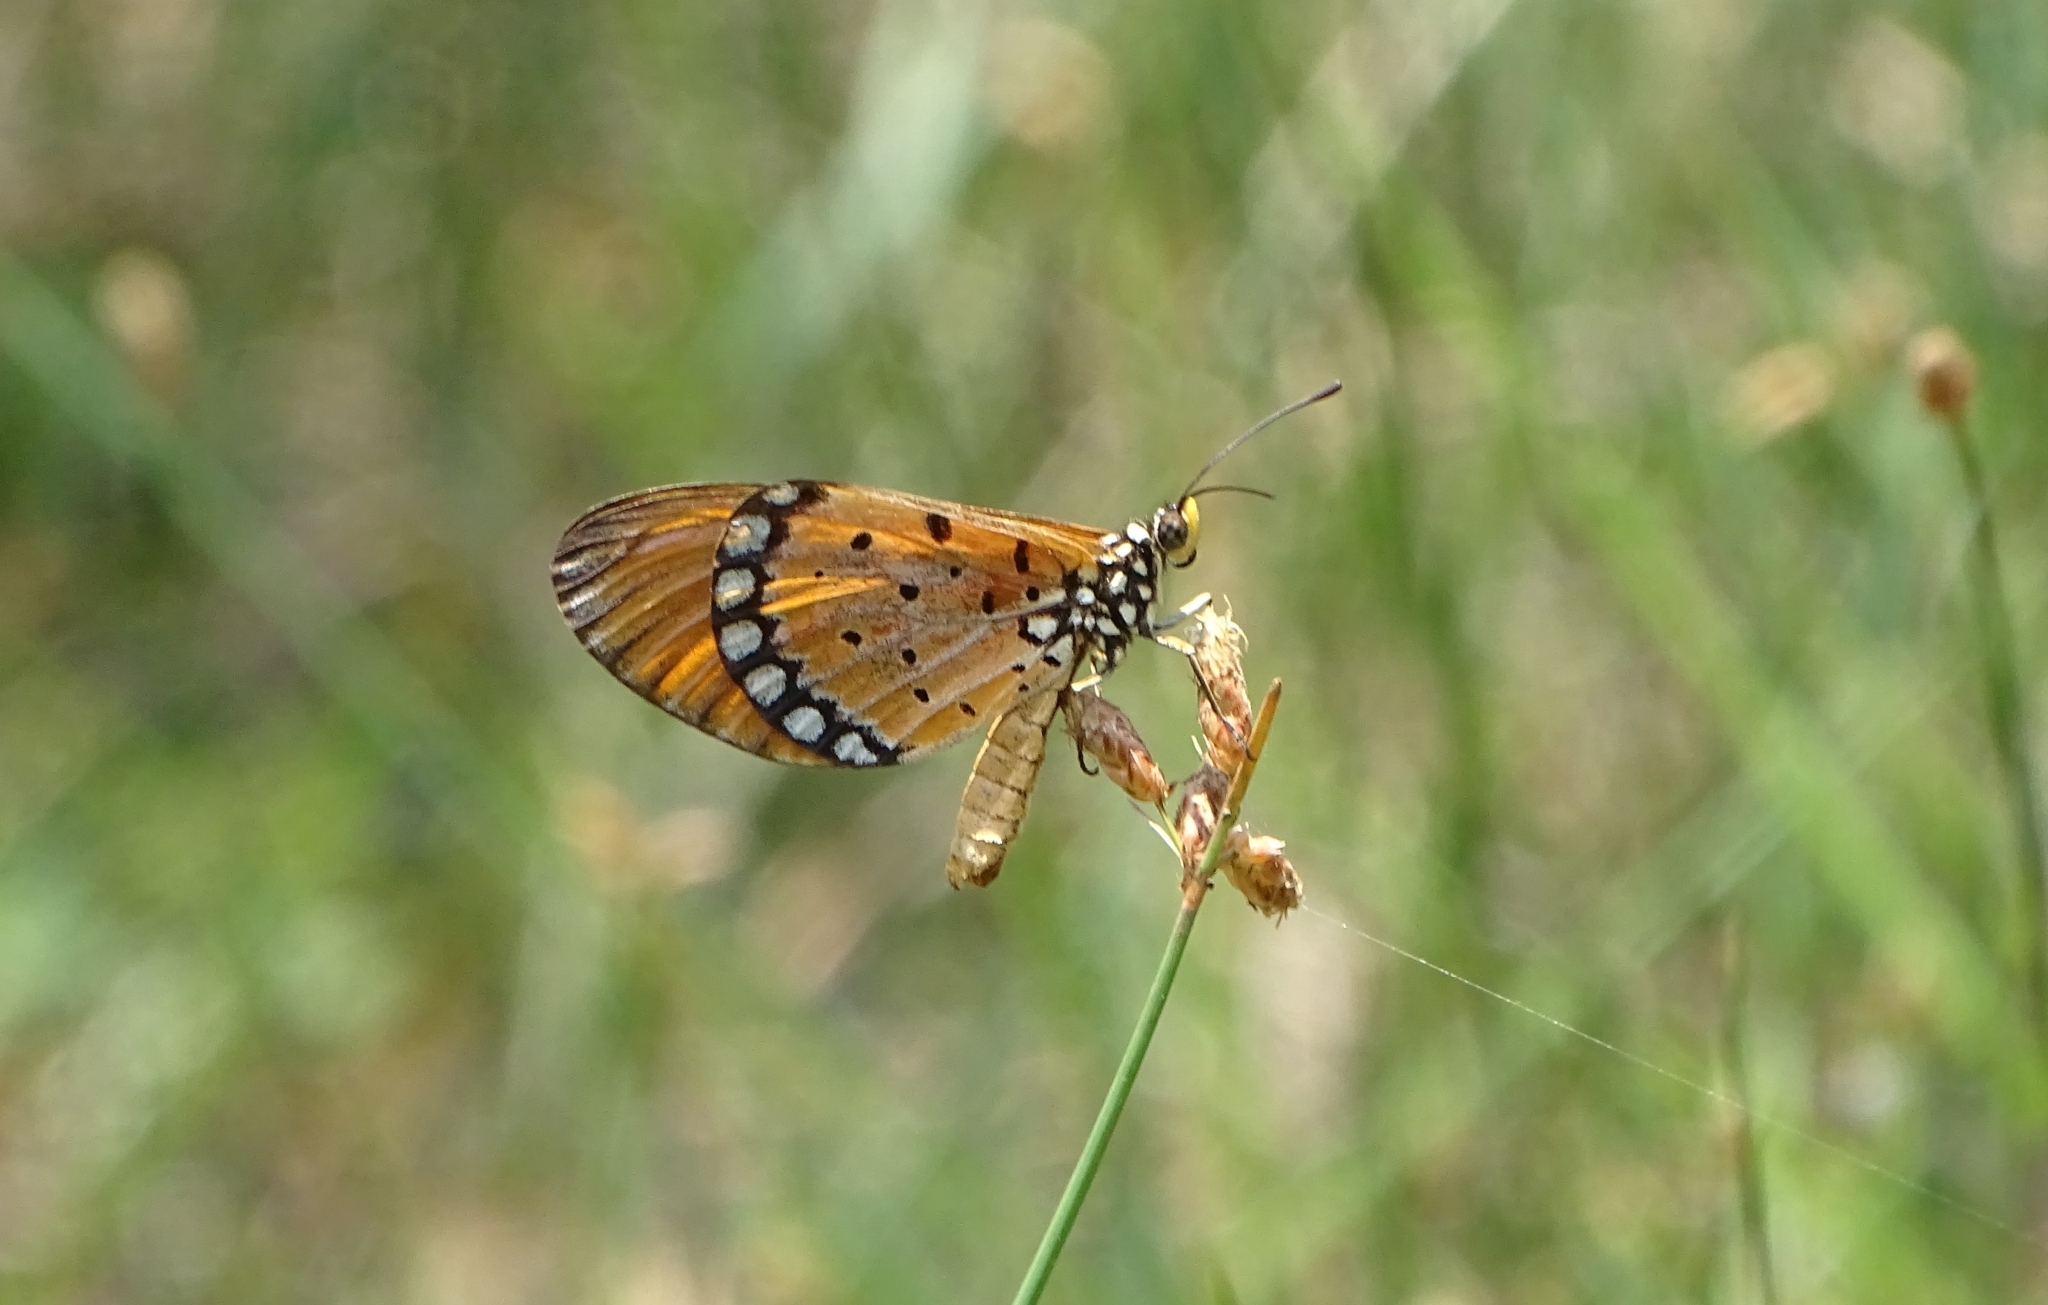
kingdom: Animalia
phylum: Arthropoda
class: Insecta
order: Lepidoptera
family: Nymphalidae
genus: Acraea
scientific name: Acraea terpsicore
